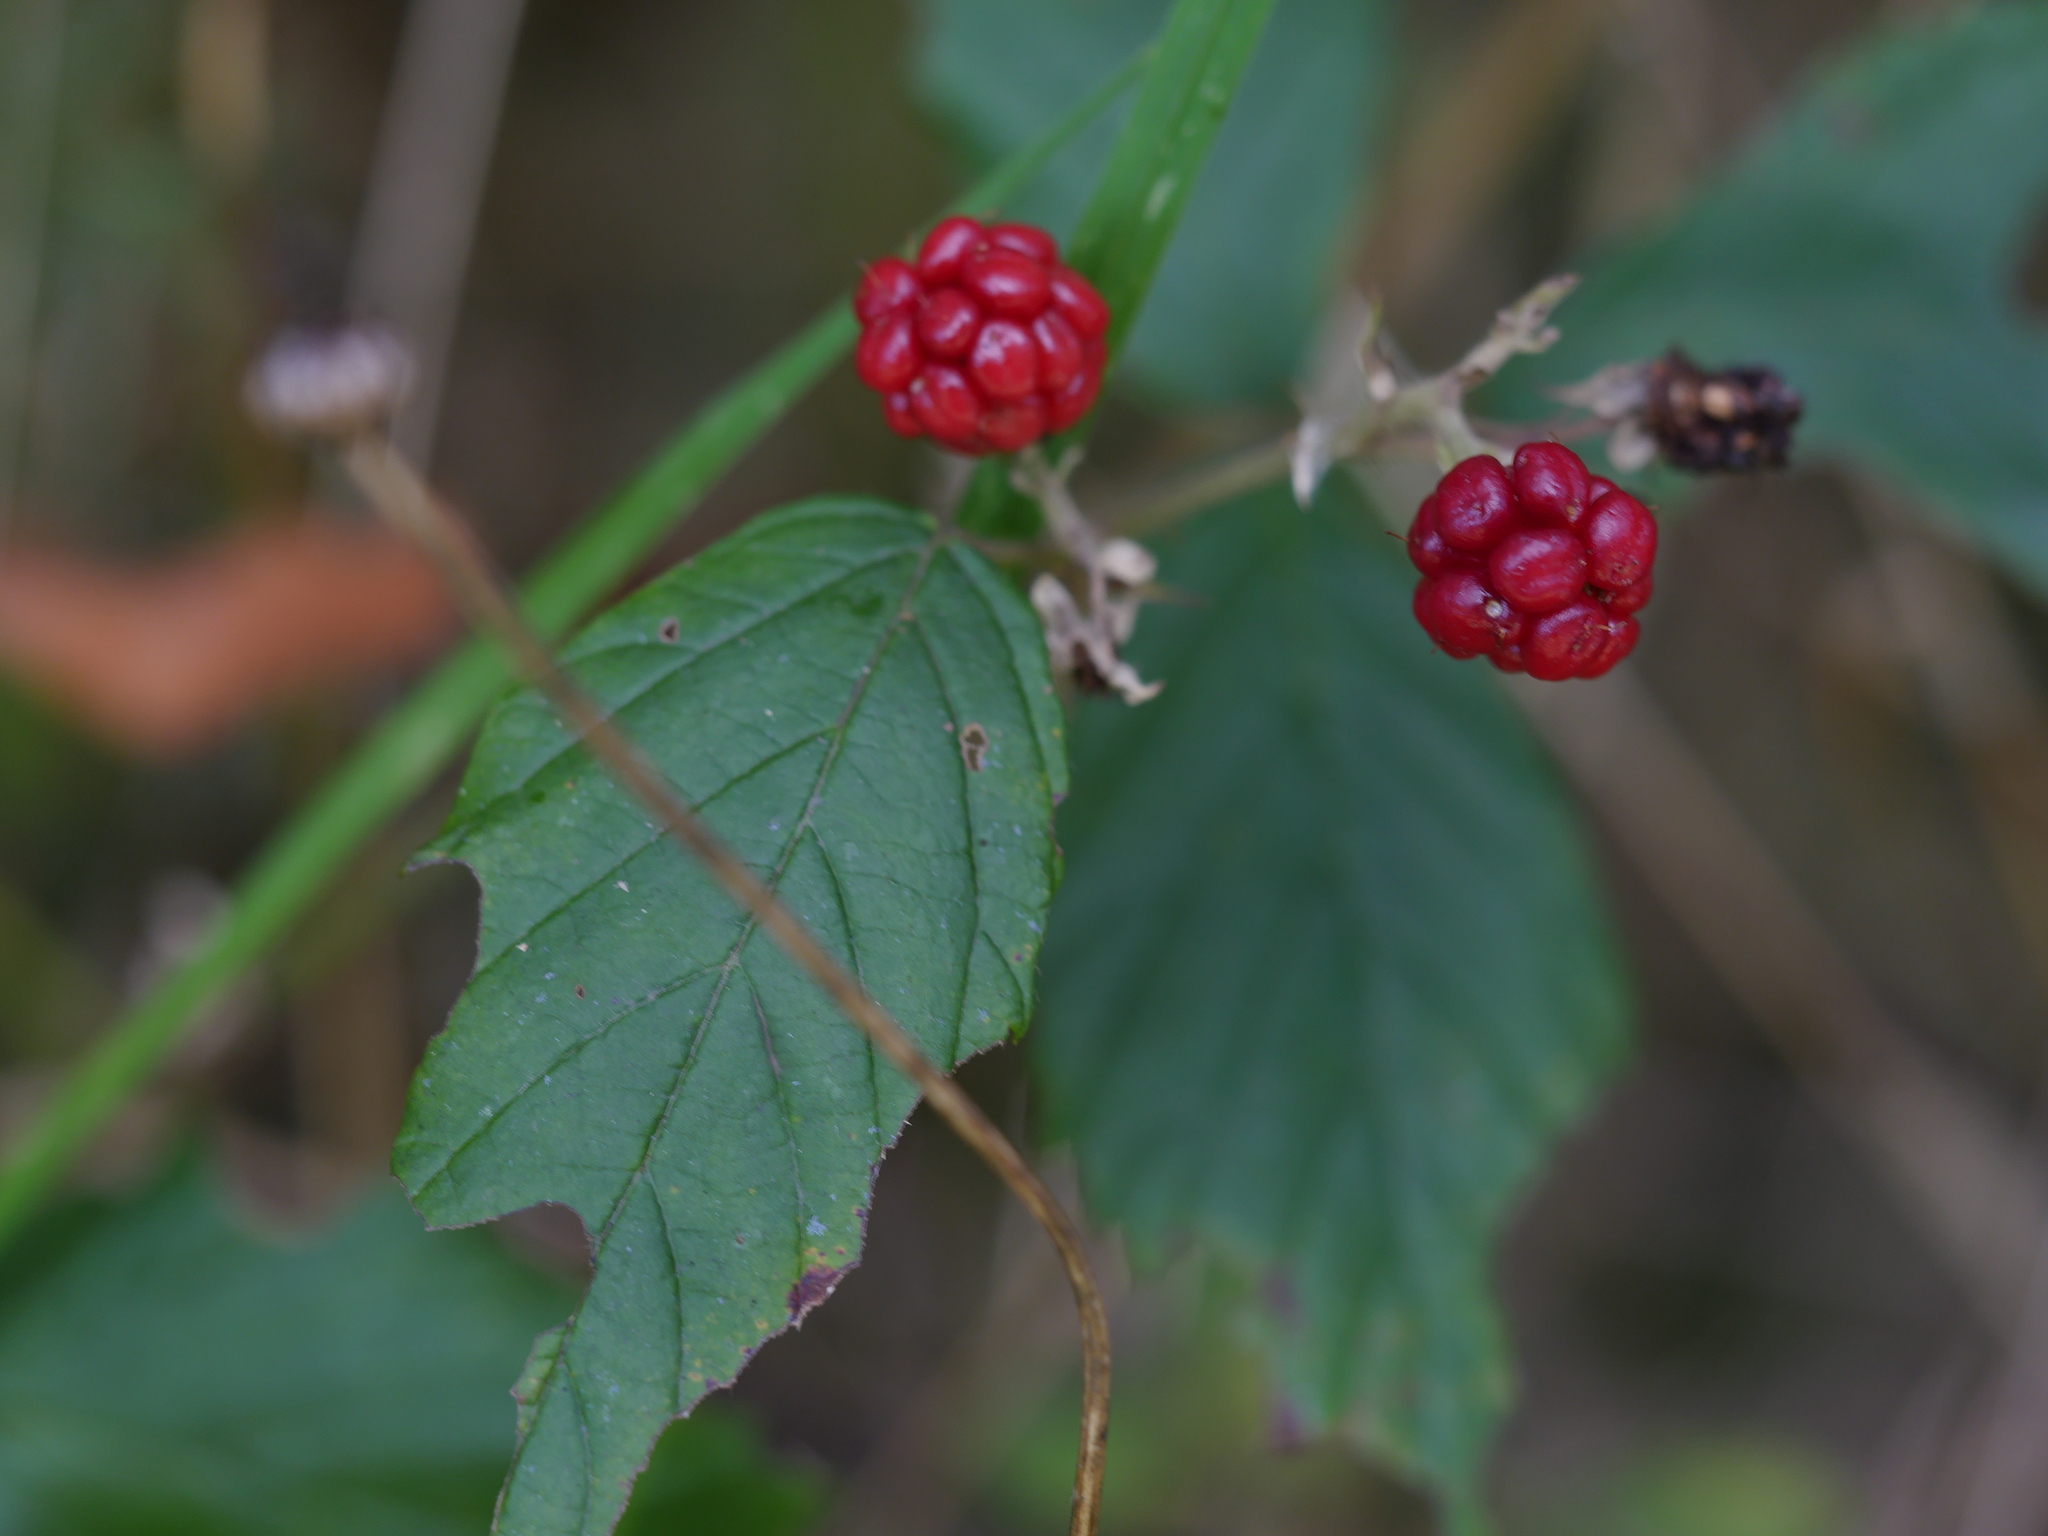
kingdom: Plantae
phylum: Tracheophyta
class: Magnoliopsida
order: Rosales
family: Rosaceae
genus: Rubus
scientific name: Rubus
